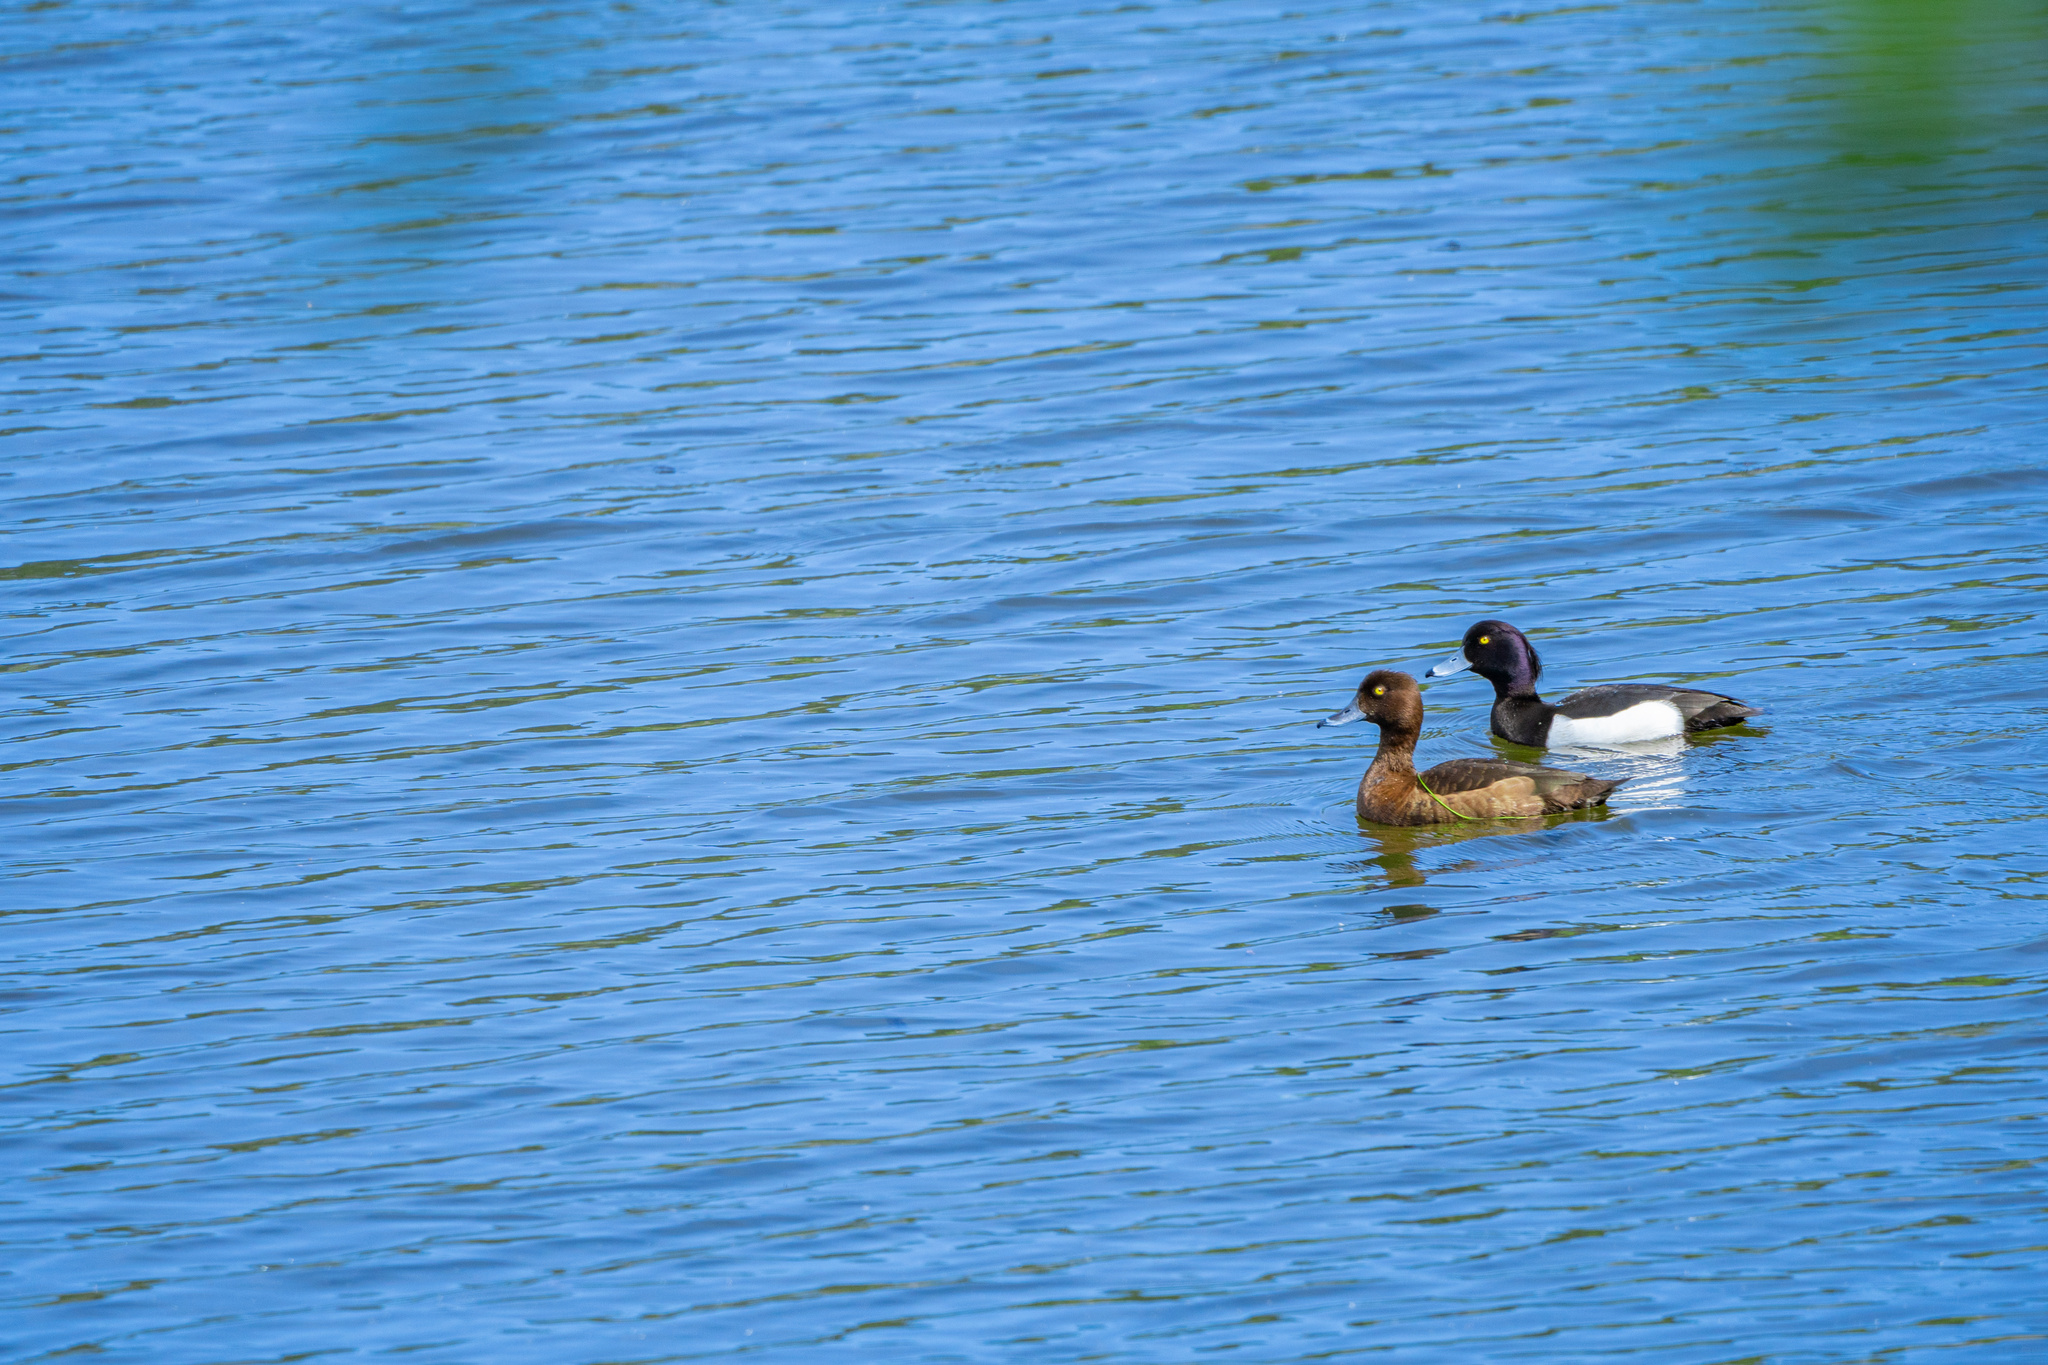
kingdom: Animalia
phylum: Chordata
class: Aves
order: Anseriformes
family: Anatidae
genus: Aythya
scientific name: Aythya fuligula
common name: Tufted duck
